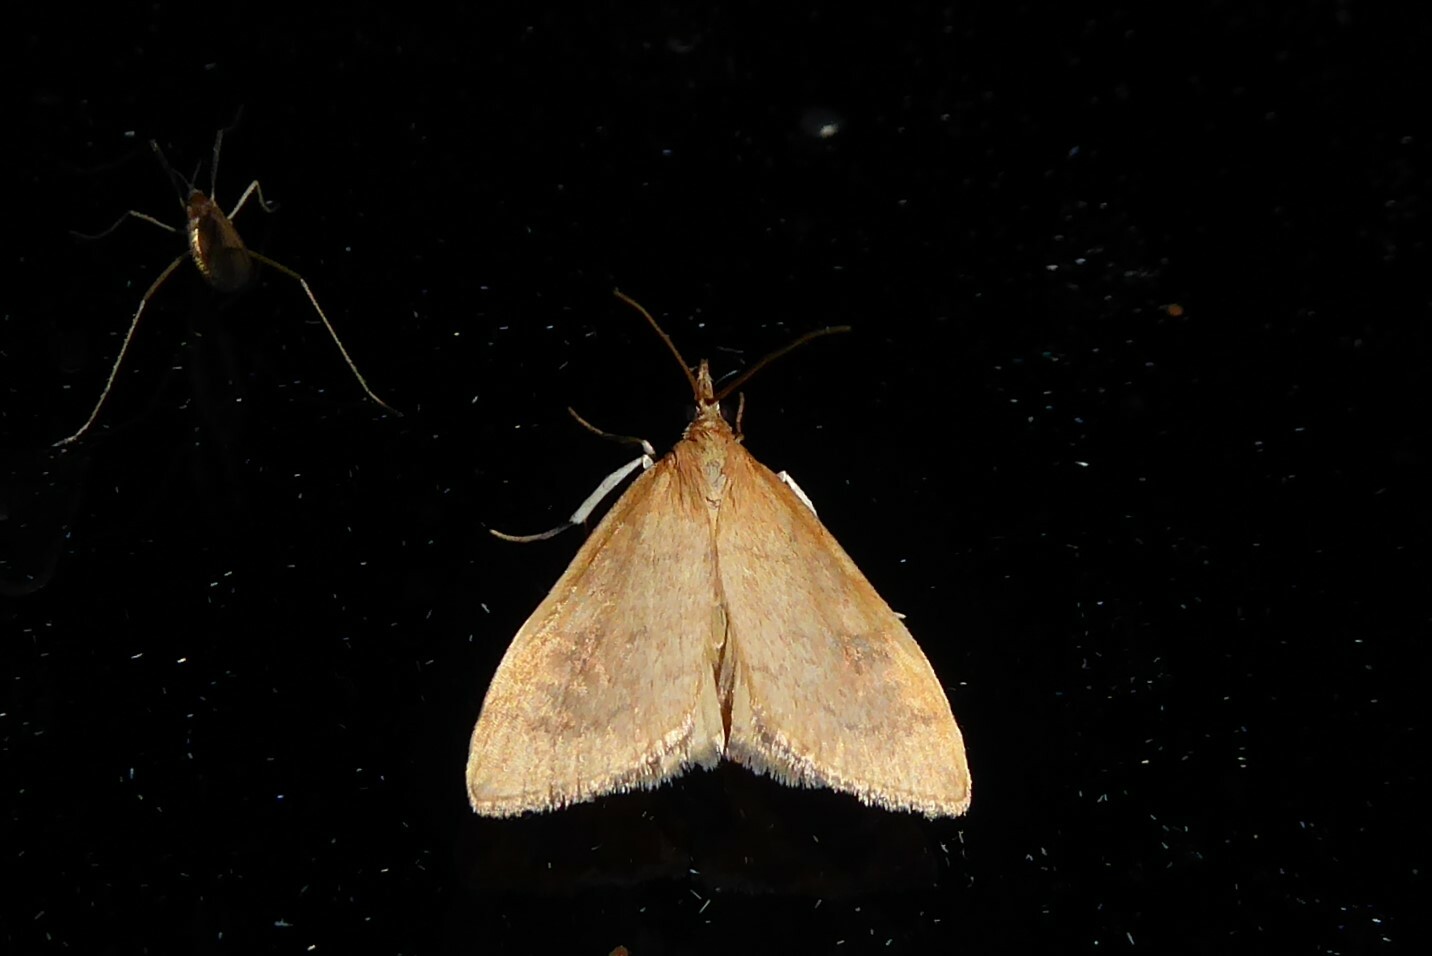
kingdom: Animalia
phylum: Arthropoda
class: Insecta
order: Lepidoptera
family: Crambidae
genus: Udea
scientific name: Udea Mnesictena flavidalis
